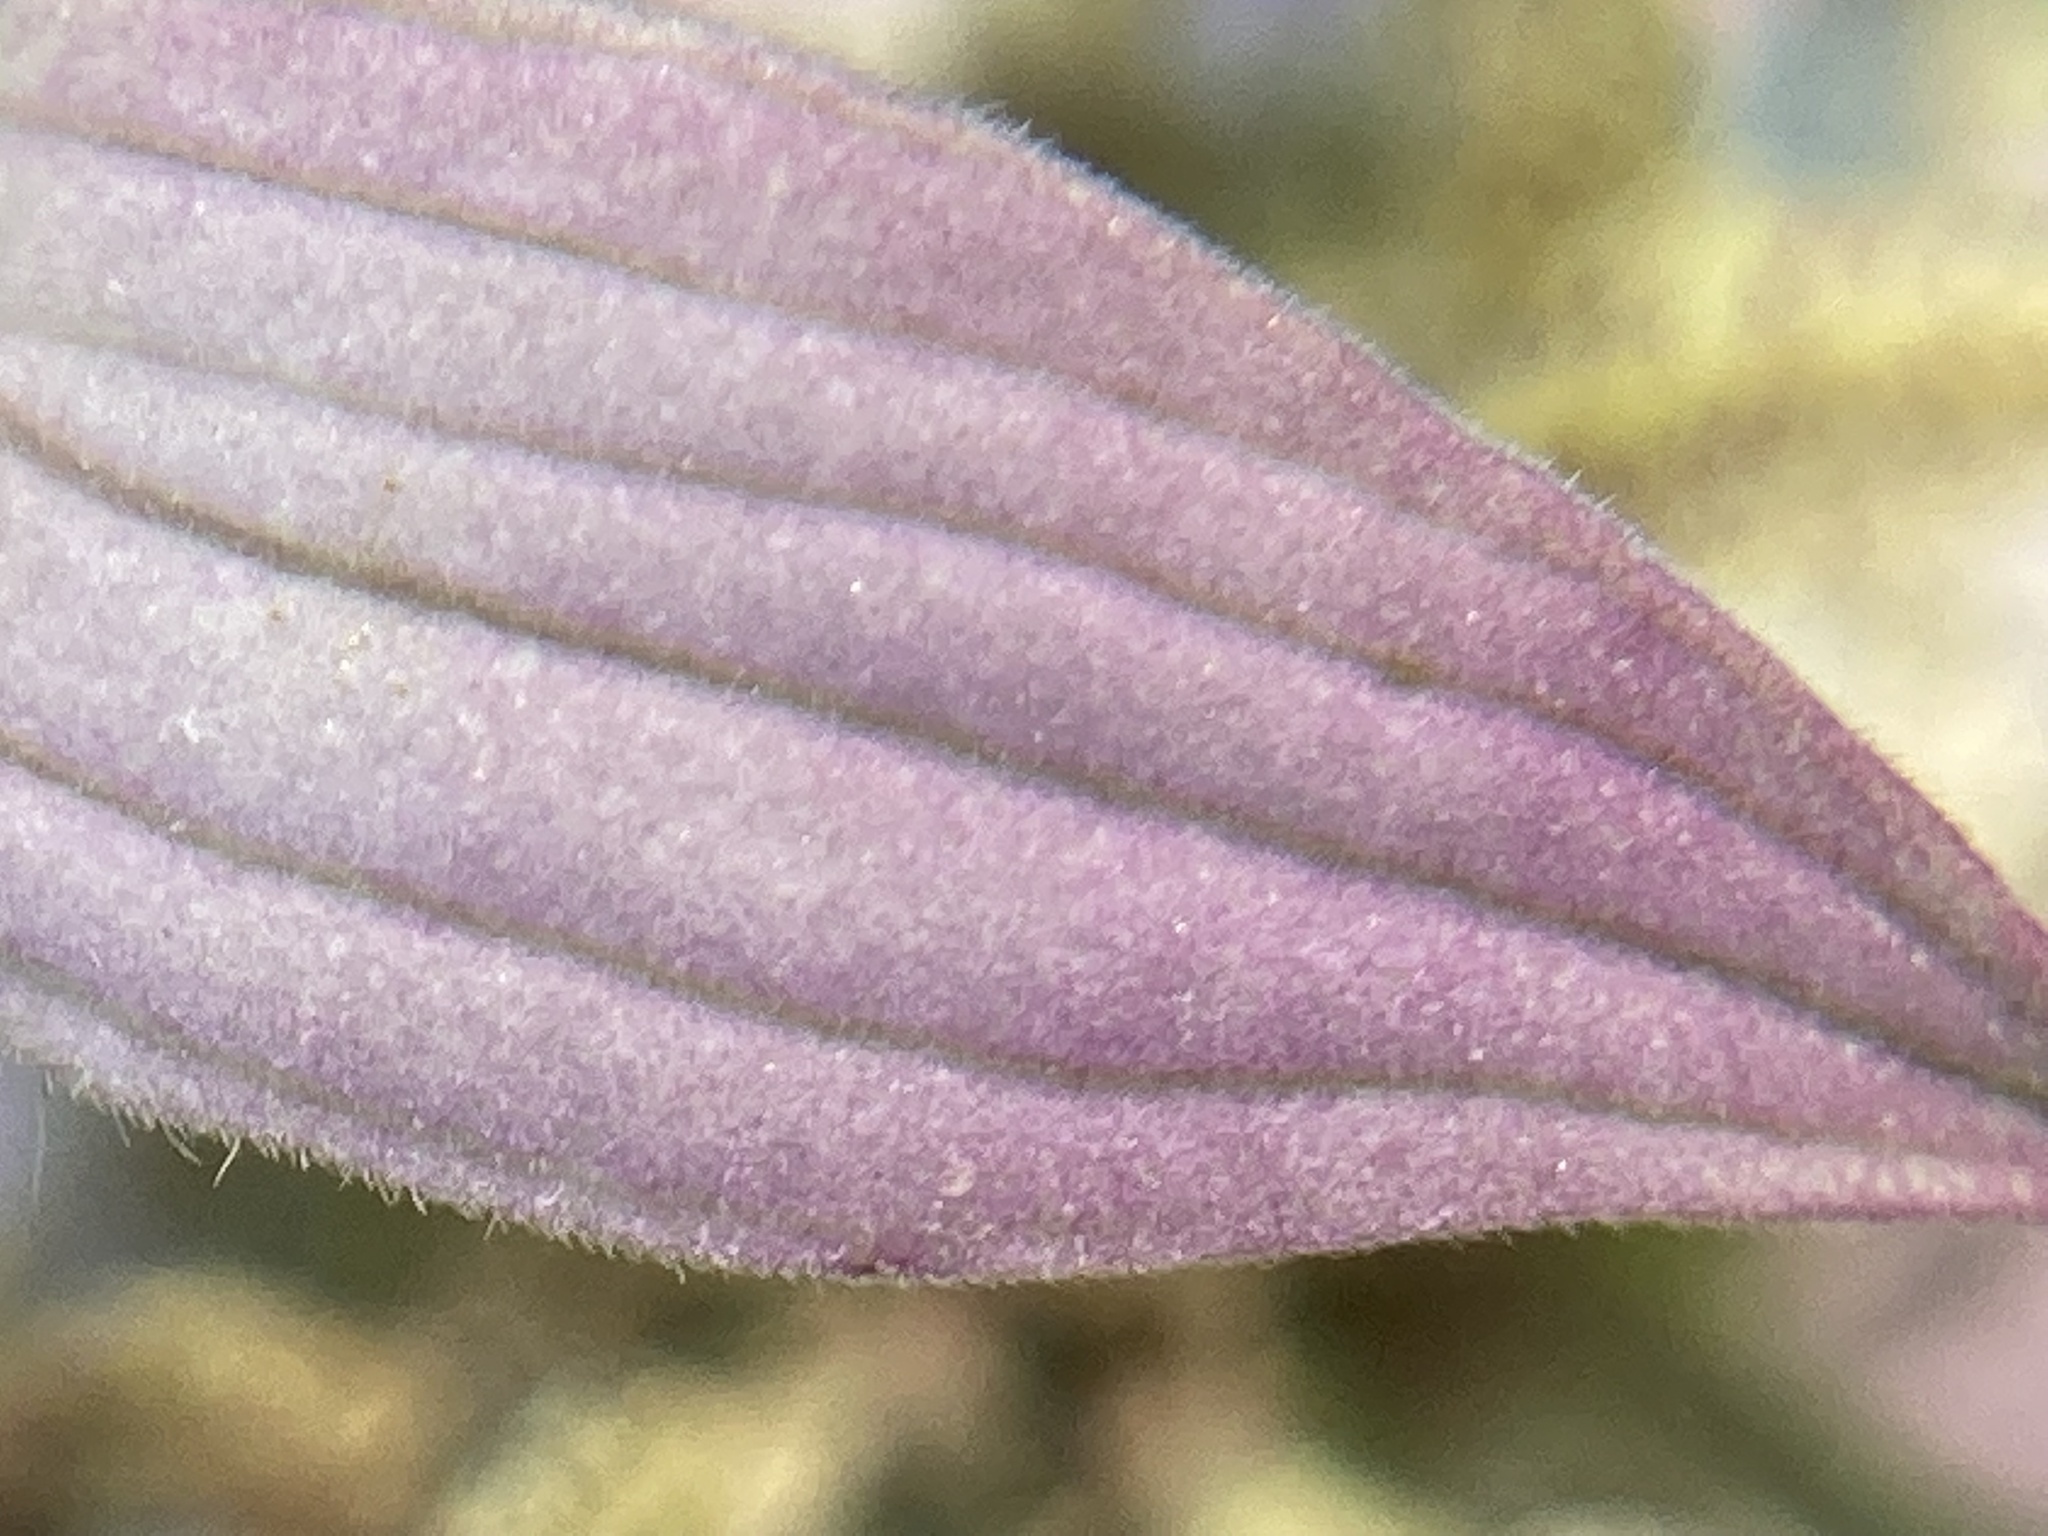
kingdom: Plantae
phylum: Tracheophyta
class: Magnoliopsida
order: Lamiales
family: Lamiaceae
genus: Monarda
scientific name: Monarda punctata
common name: Dotted monarda
